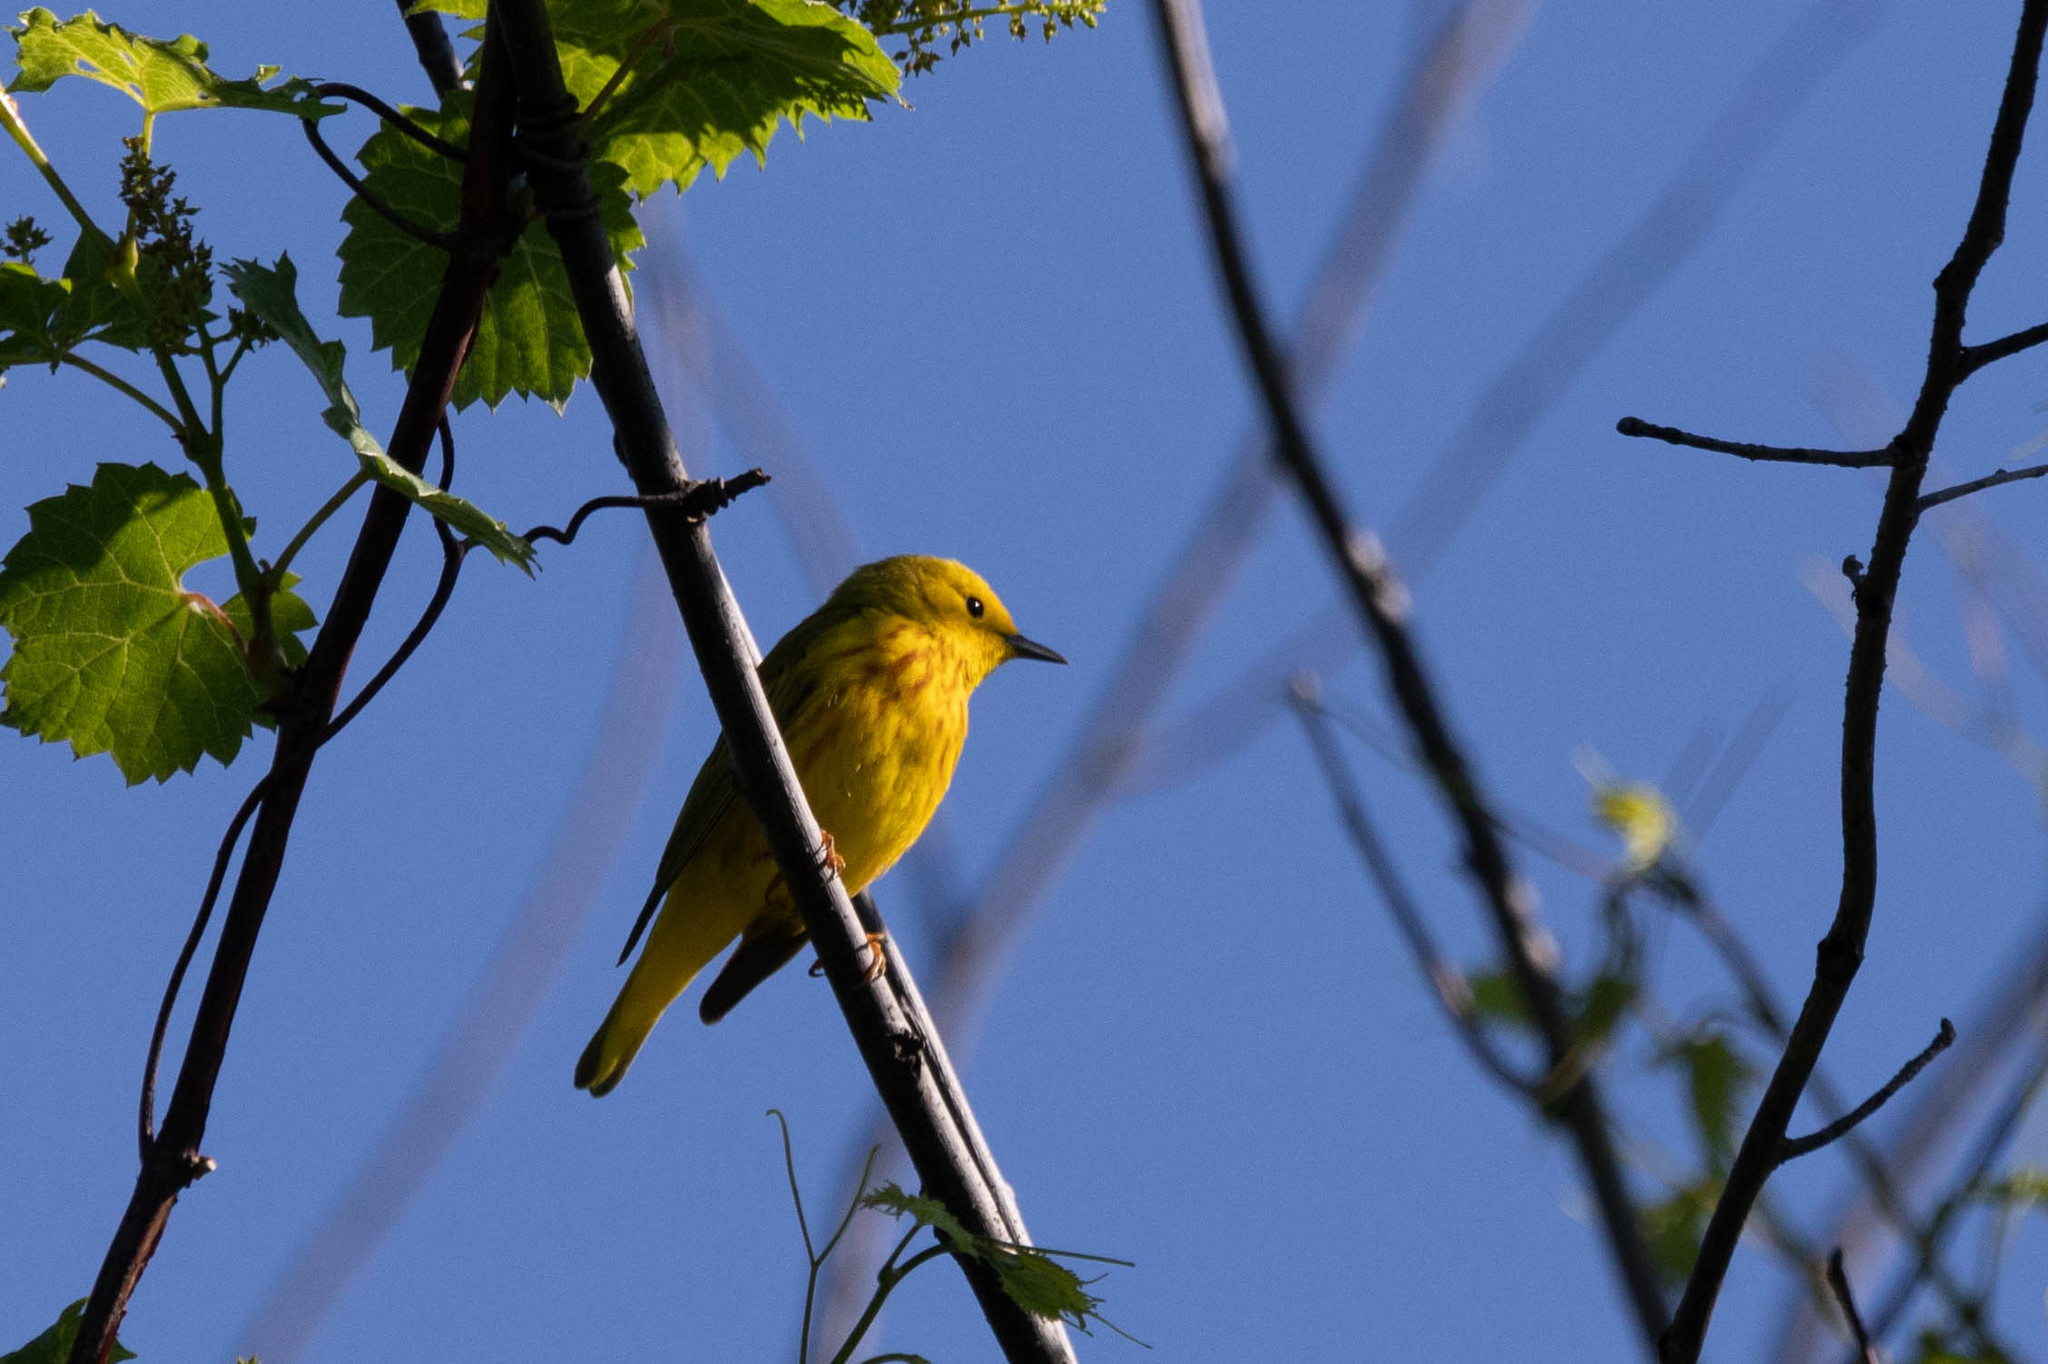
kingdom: Animalia
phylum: Chordata
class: Aves
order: Passeriformes
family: Parulidae
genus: Setophaga
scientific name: Setophaga petechia
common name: Yellow warbler
